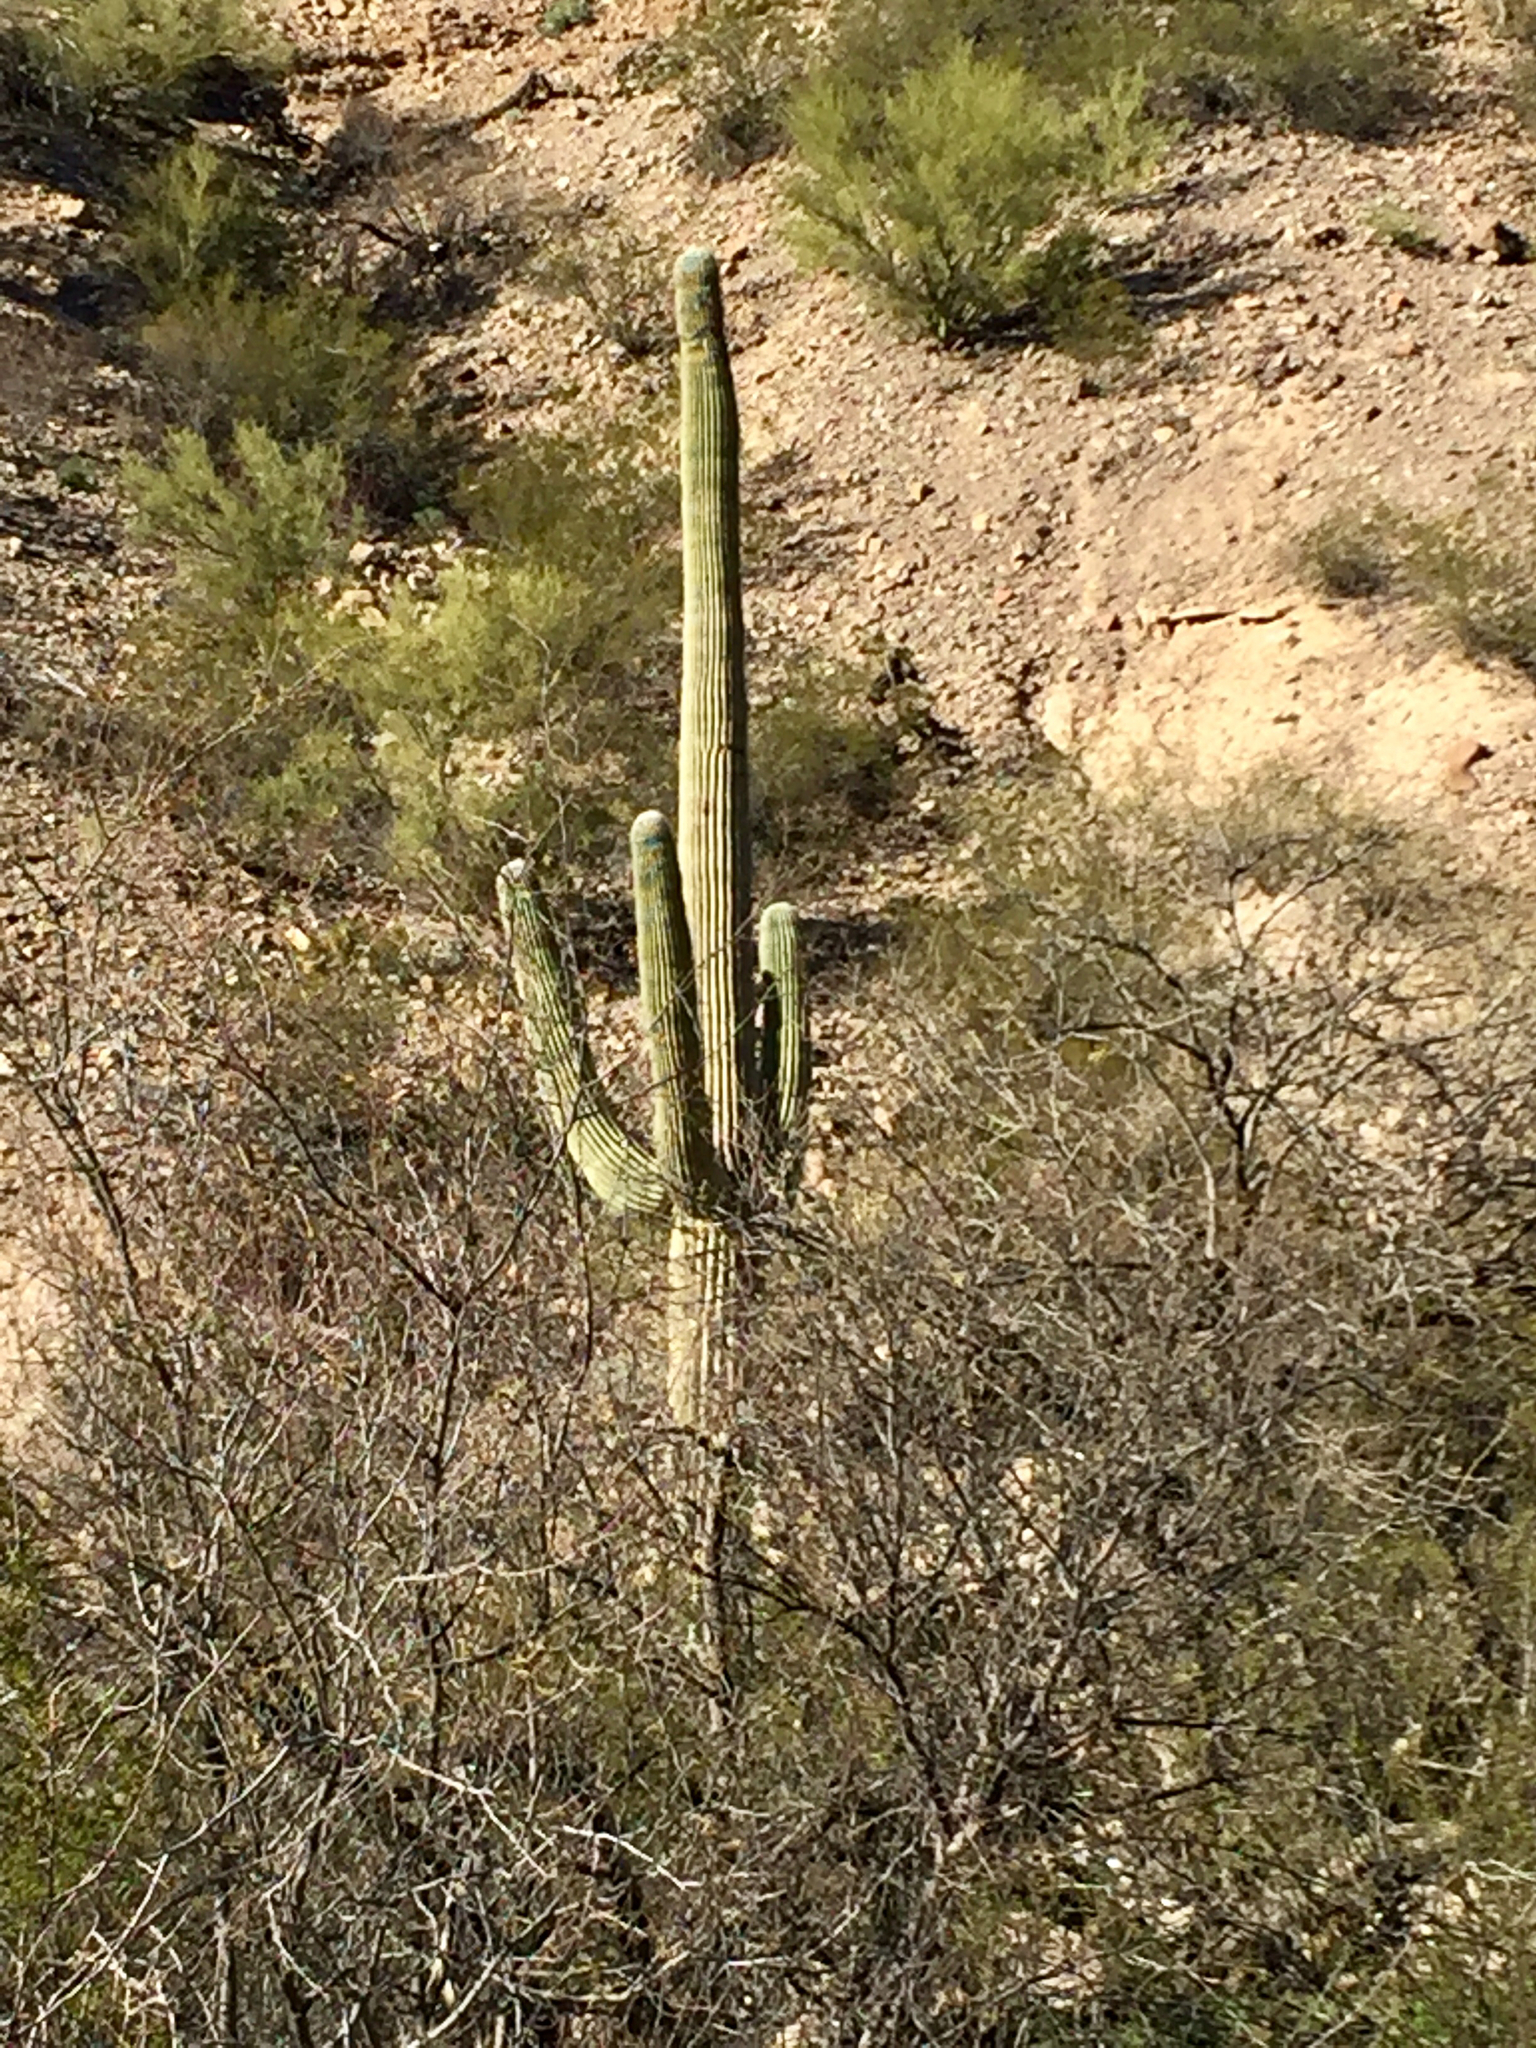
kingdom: Plantae
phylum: Tracheophyta
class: Magnoliopsida
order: Caryophyllales
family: Cactaceae
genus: Carnegiea
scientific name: Carnegiea gigantea
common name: Saguaro
